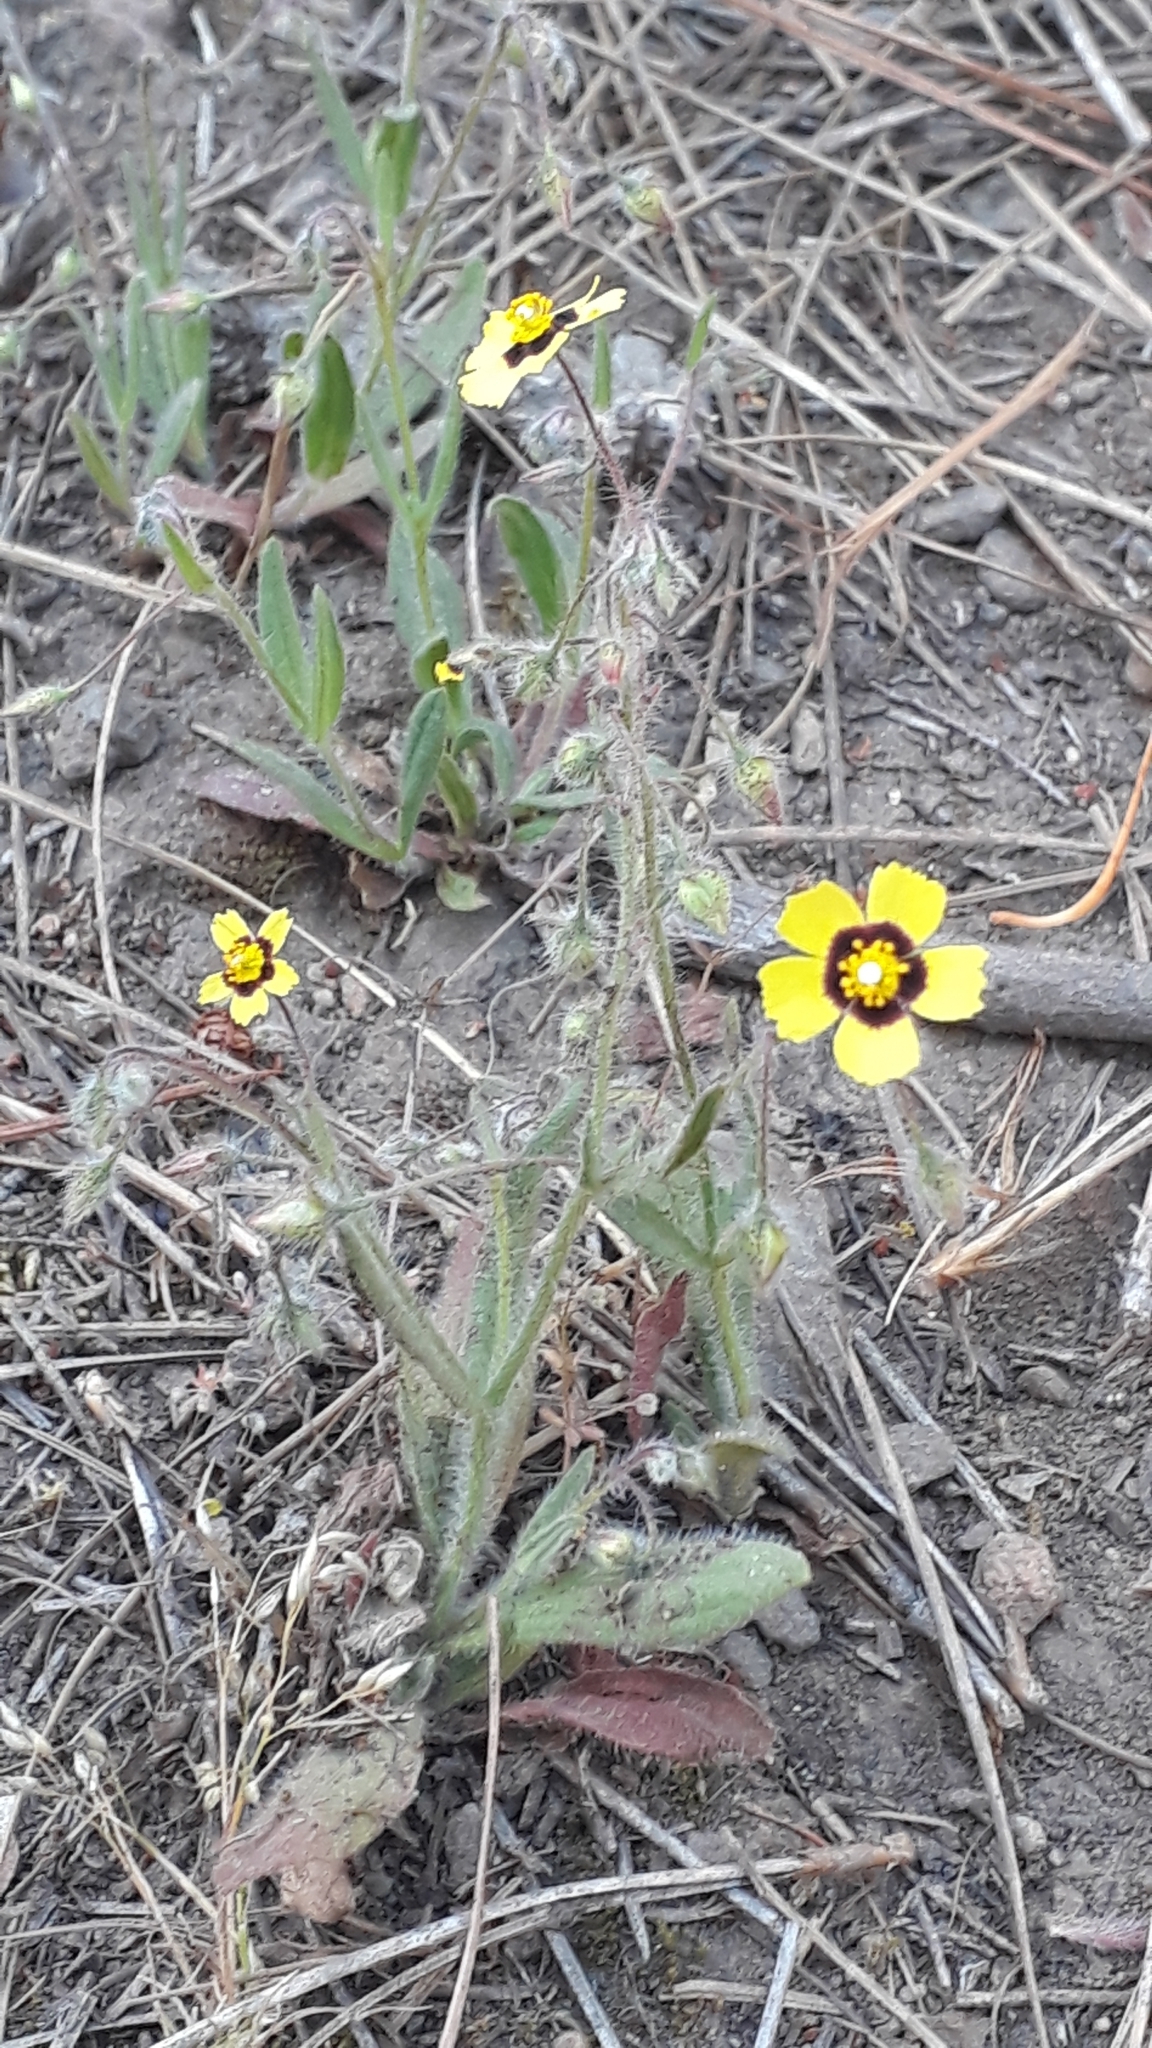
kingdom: Plantae
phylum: Tracheophyta
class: Magnoliopsida
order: Malvales
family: Cistaceae
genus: Tuberaria
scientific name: Tuberaria guttata
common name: Spotted rock-rose
